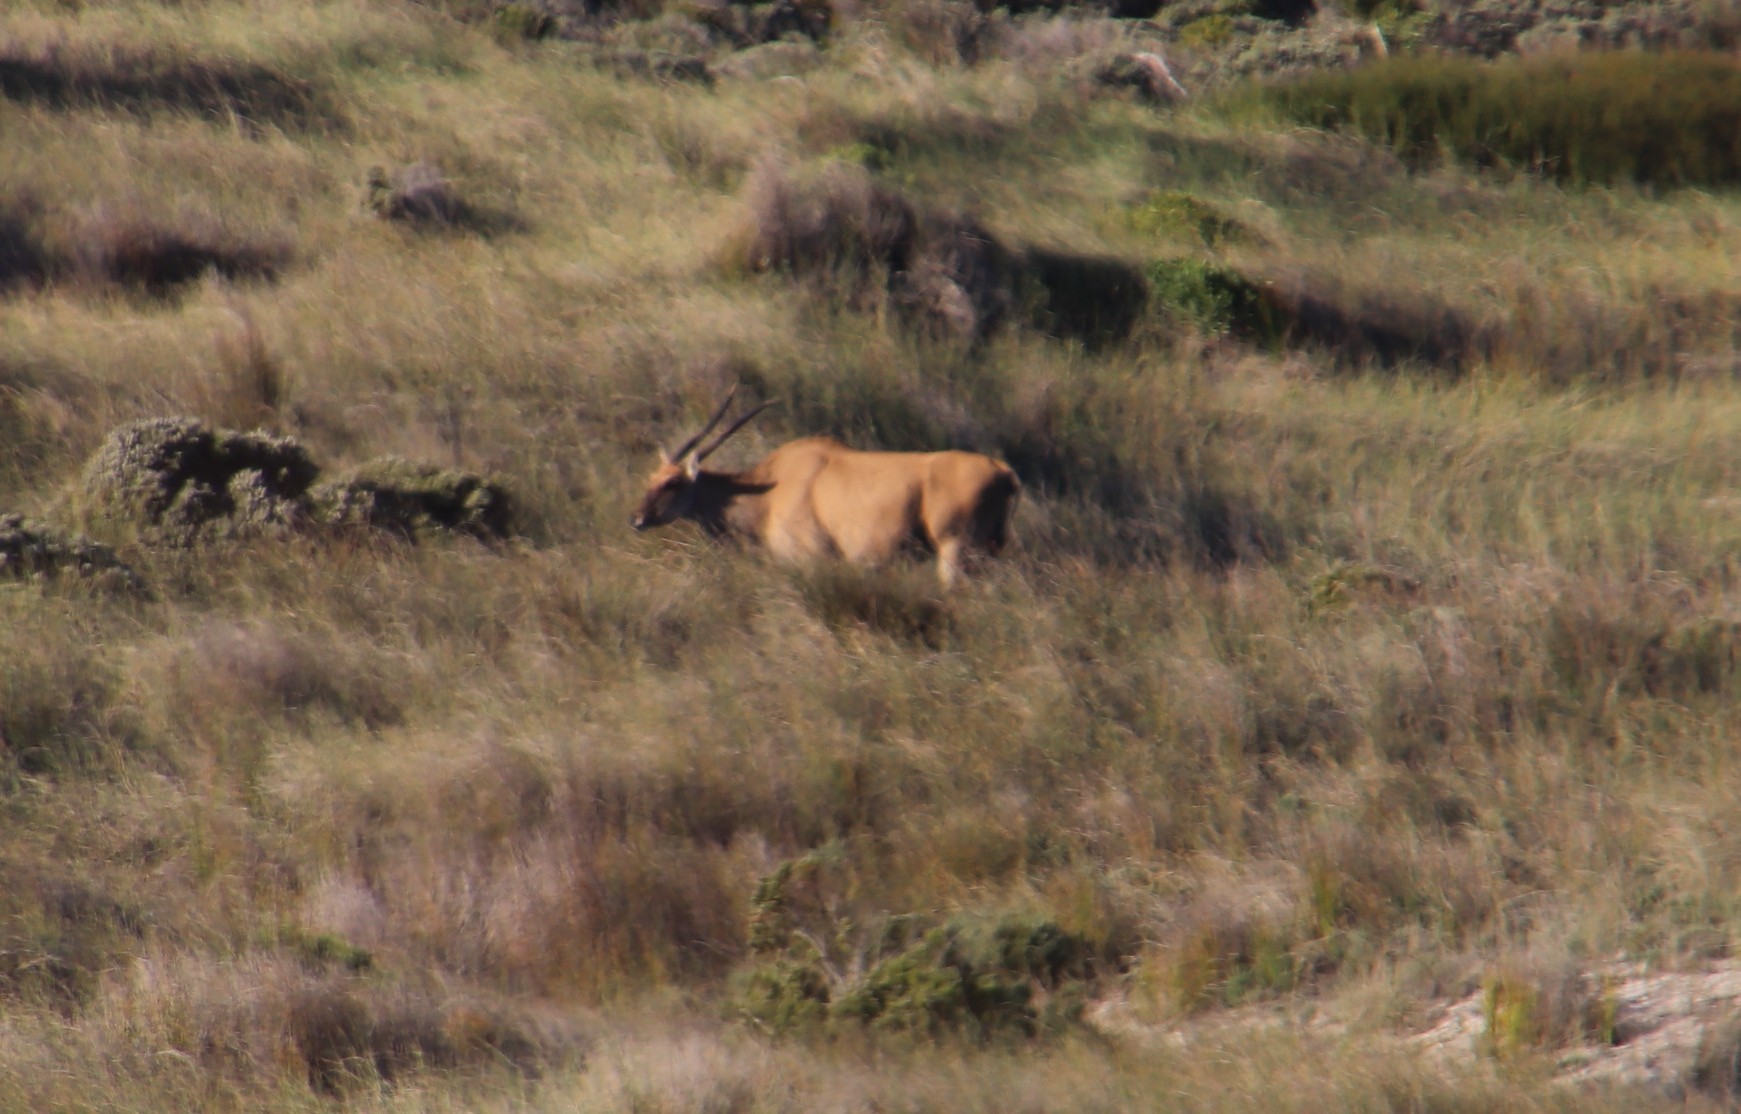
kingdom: Animalia
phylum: Chordata
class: Mammalia
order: Artiodactyla
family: Bovidae
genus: Taurotragus
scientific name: Taurotragus oryx
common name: Common eland
